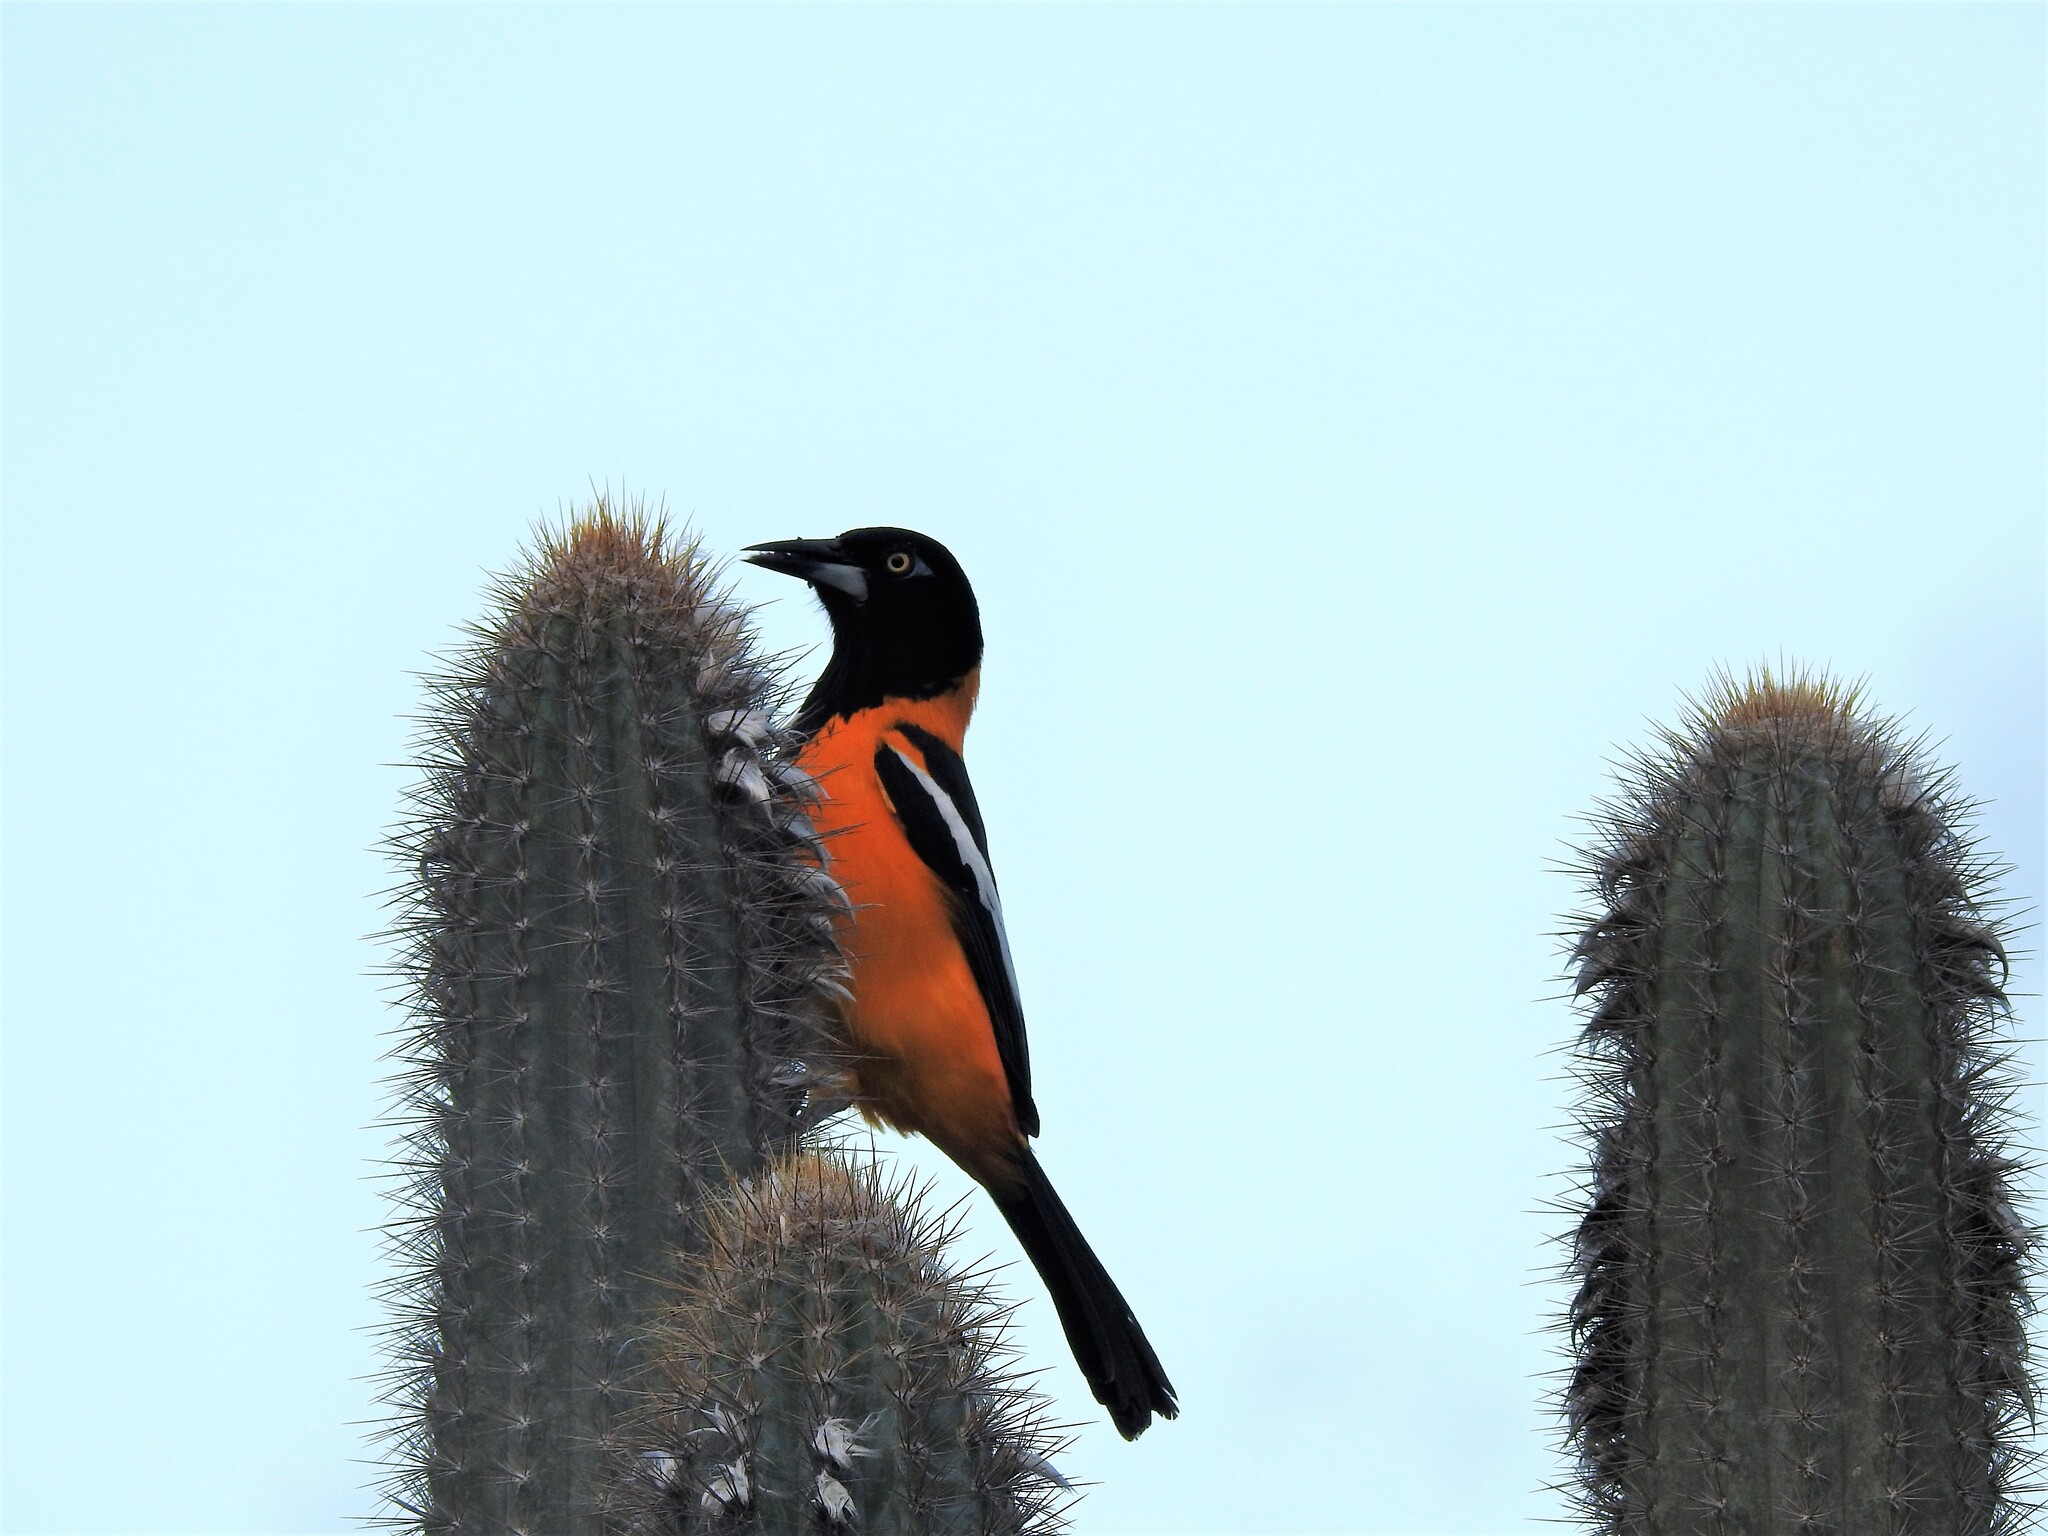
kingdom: Animalia
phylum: Chordata
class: Aves
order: Passeriformes
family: Icteridae
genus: Icterus
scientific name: Icterus icterus
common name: Venezuelan troupial
